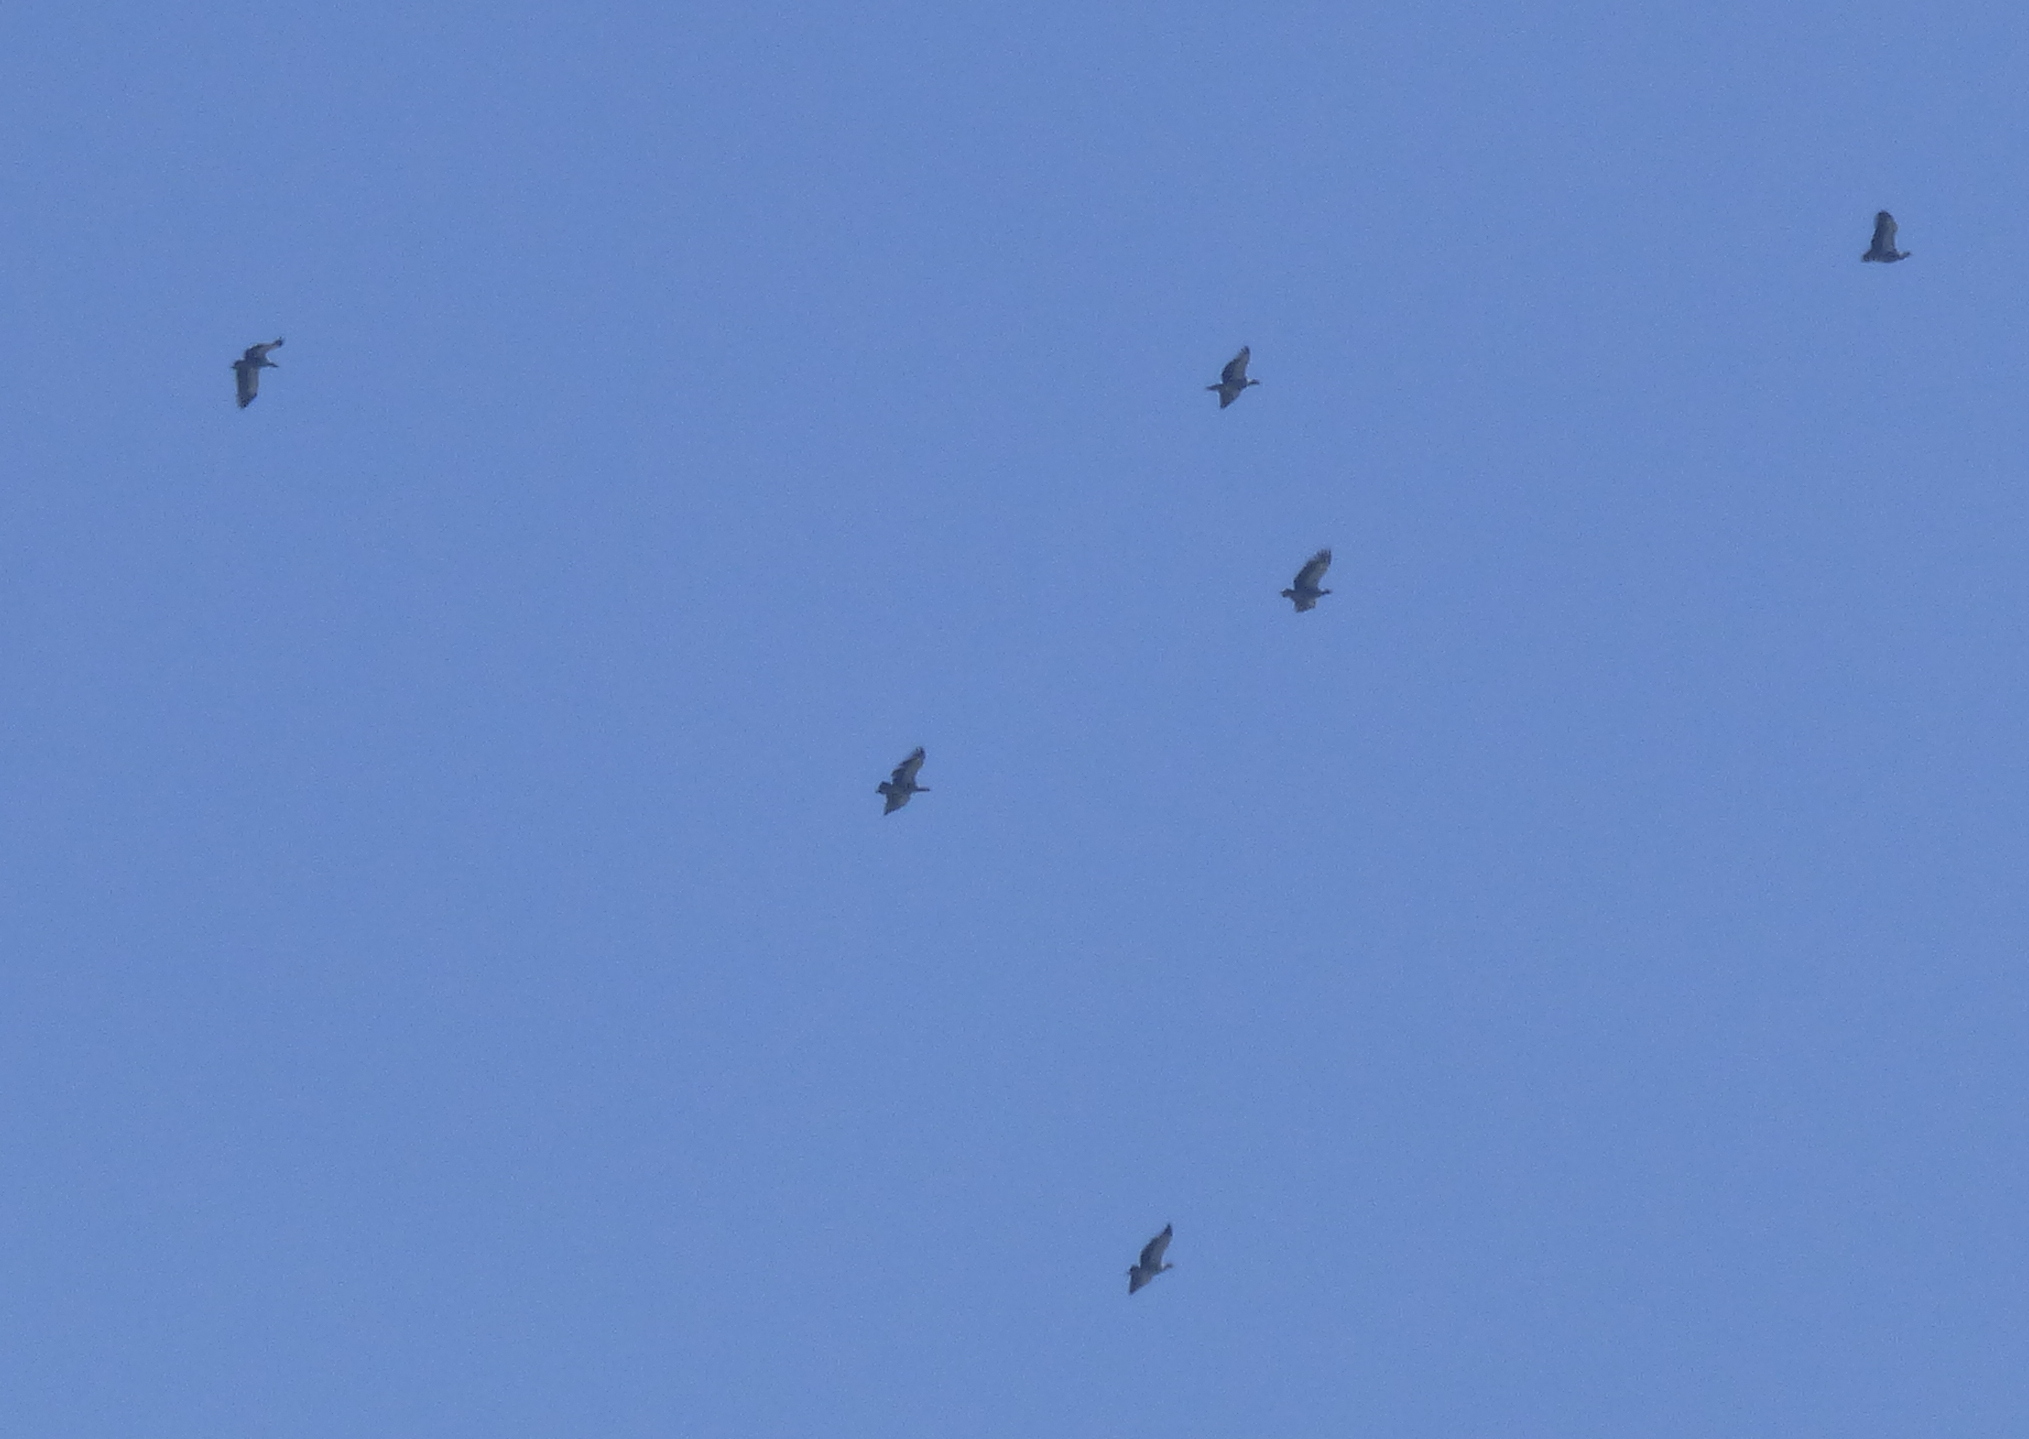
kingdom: Animalia
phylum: Chordata
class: Aves
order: Anseriformes
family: Anhimidae
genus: Chauna
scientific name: Chauna torquata
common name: Southern screamer
